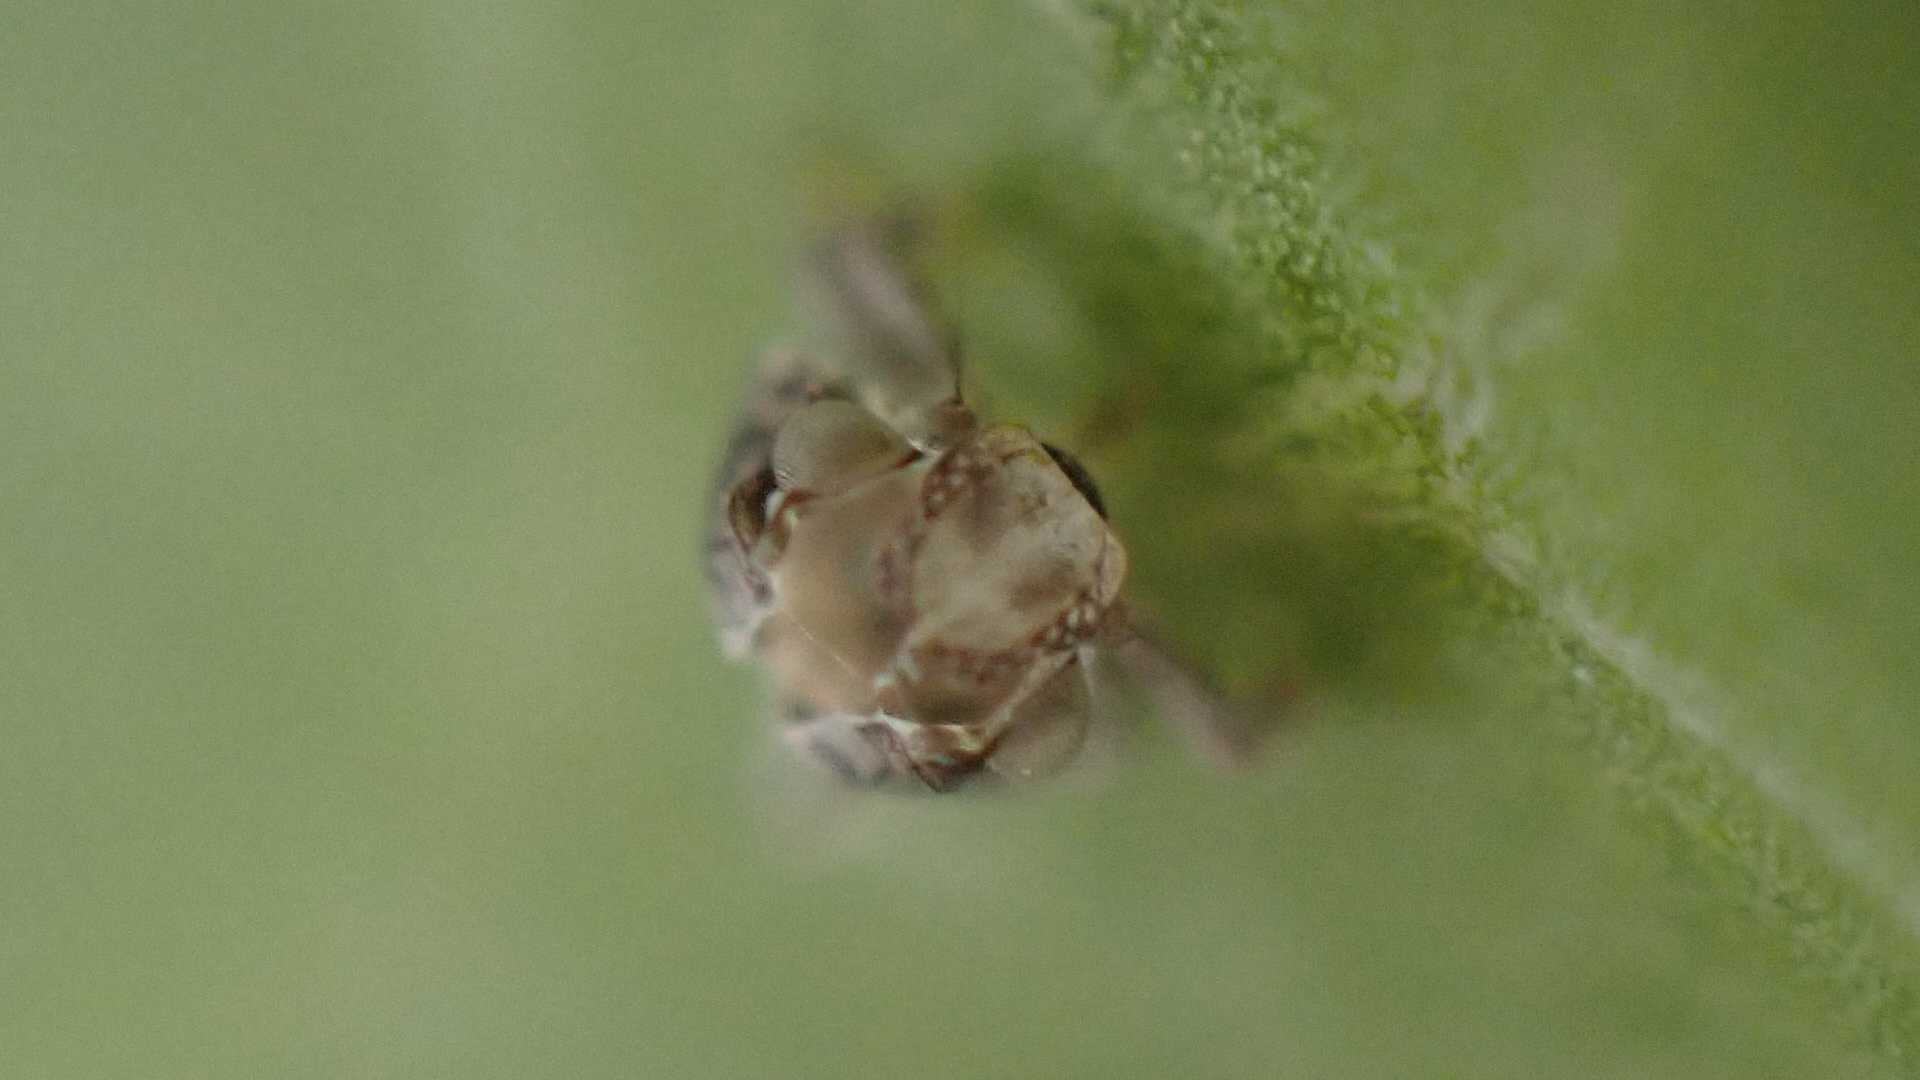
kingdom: Animalia
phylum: Arthropoda
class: Insecta
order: Hemiptera
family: Issidae
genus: Issus
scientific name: Issus coleoptratus
